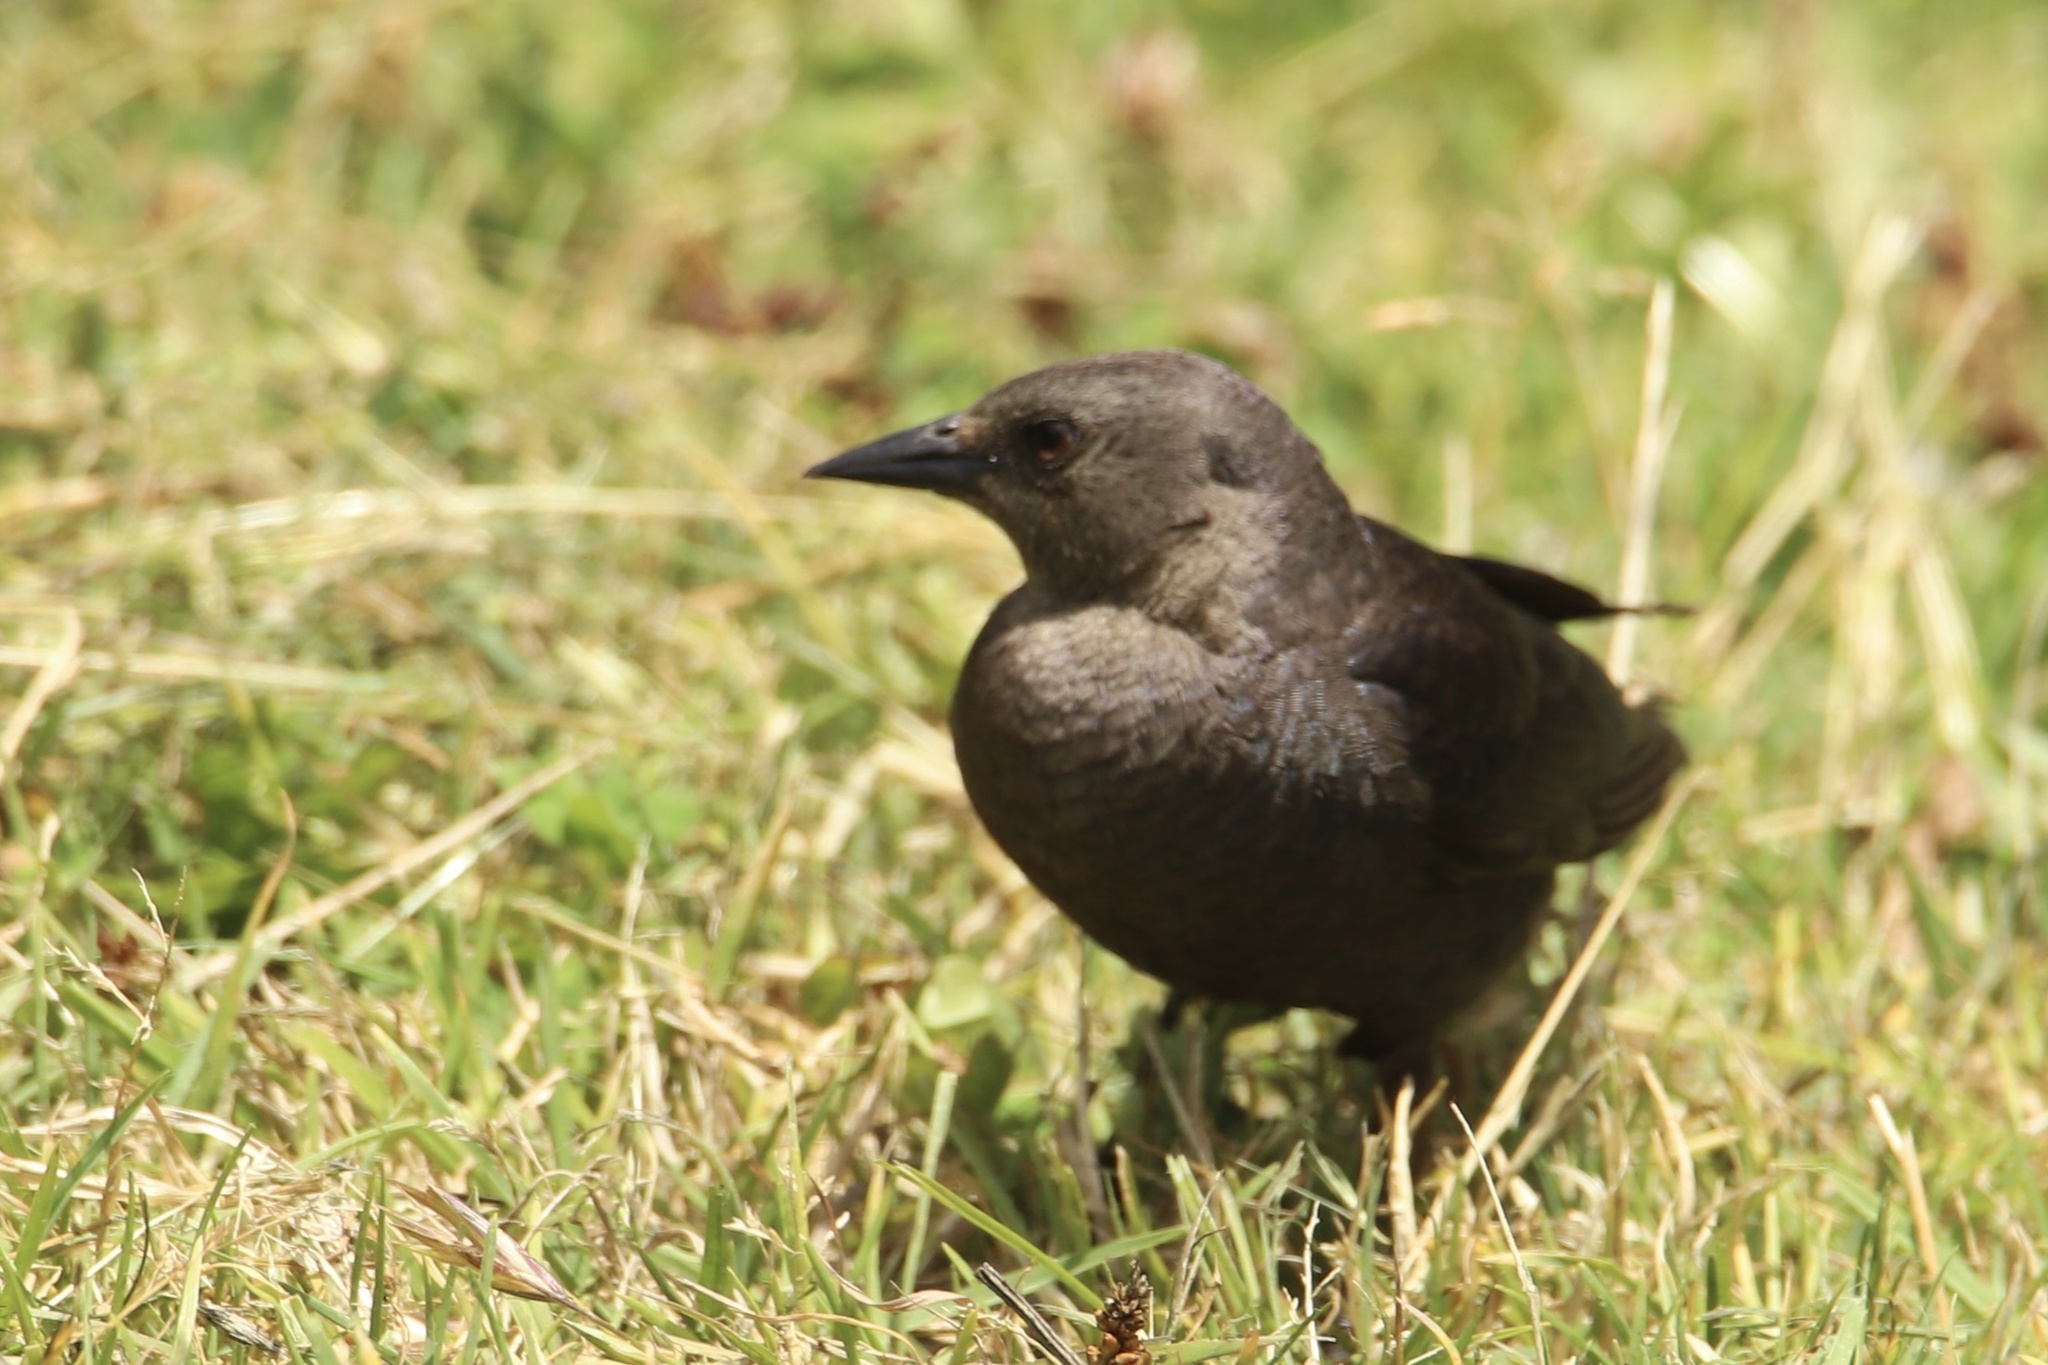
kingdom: Animalia
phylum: Chordata
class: Aves
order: Passeriformes
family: Icteridae
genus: Euphagus
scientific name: Euphagus cyanocephalus
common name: Brewer's blackbird
